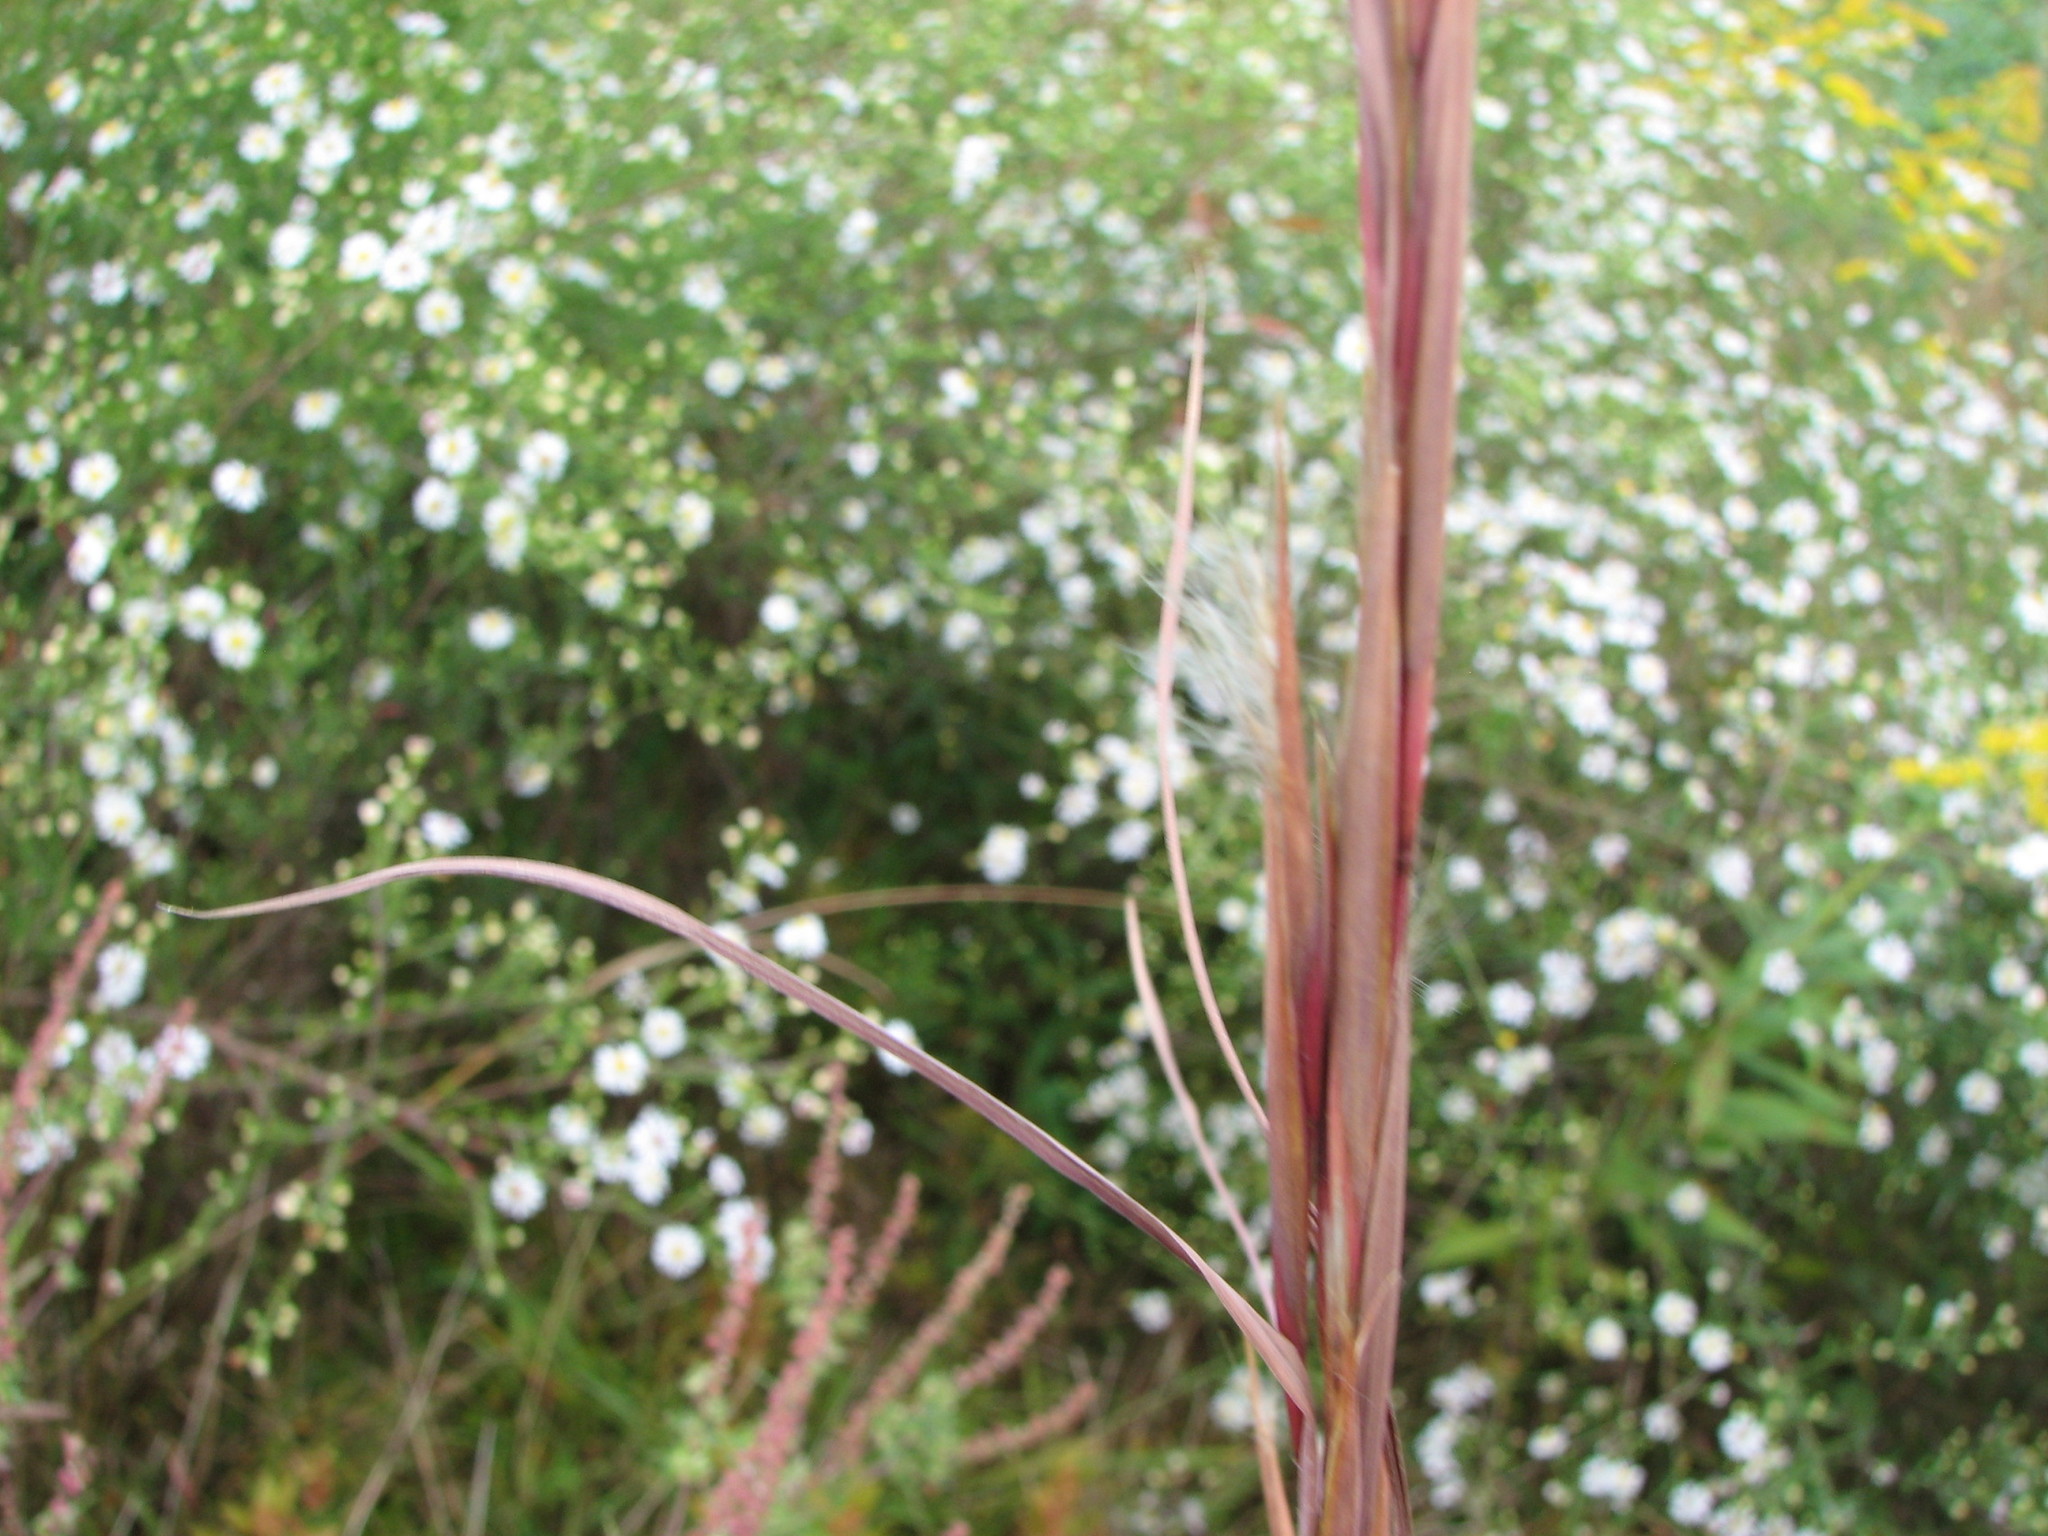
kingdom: Plantae
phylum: Tracheophyta
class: Liliopsida
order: Poales
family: Poaceae
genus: Andropogon
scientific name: Andropogon virginicus
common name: Broomsedge bluestem
